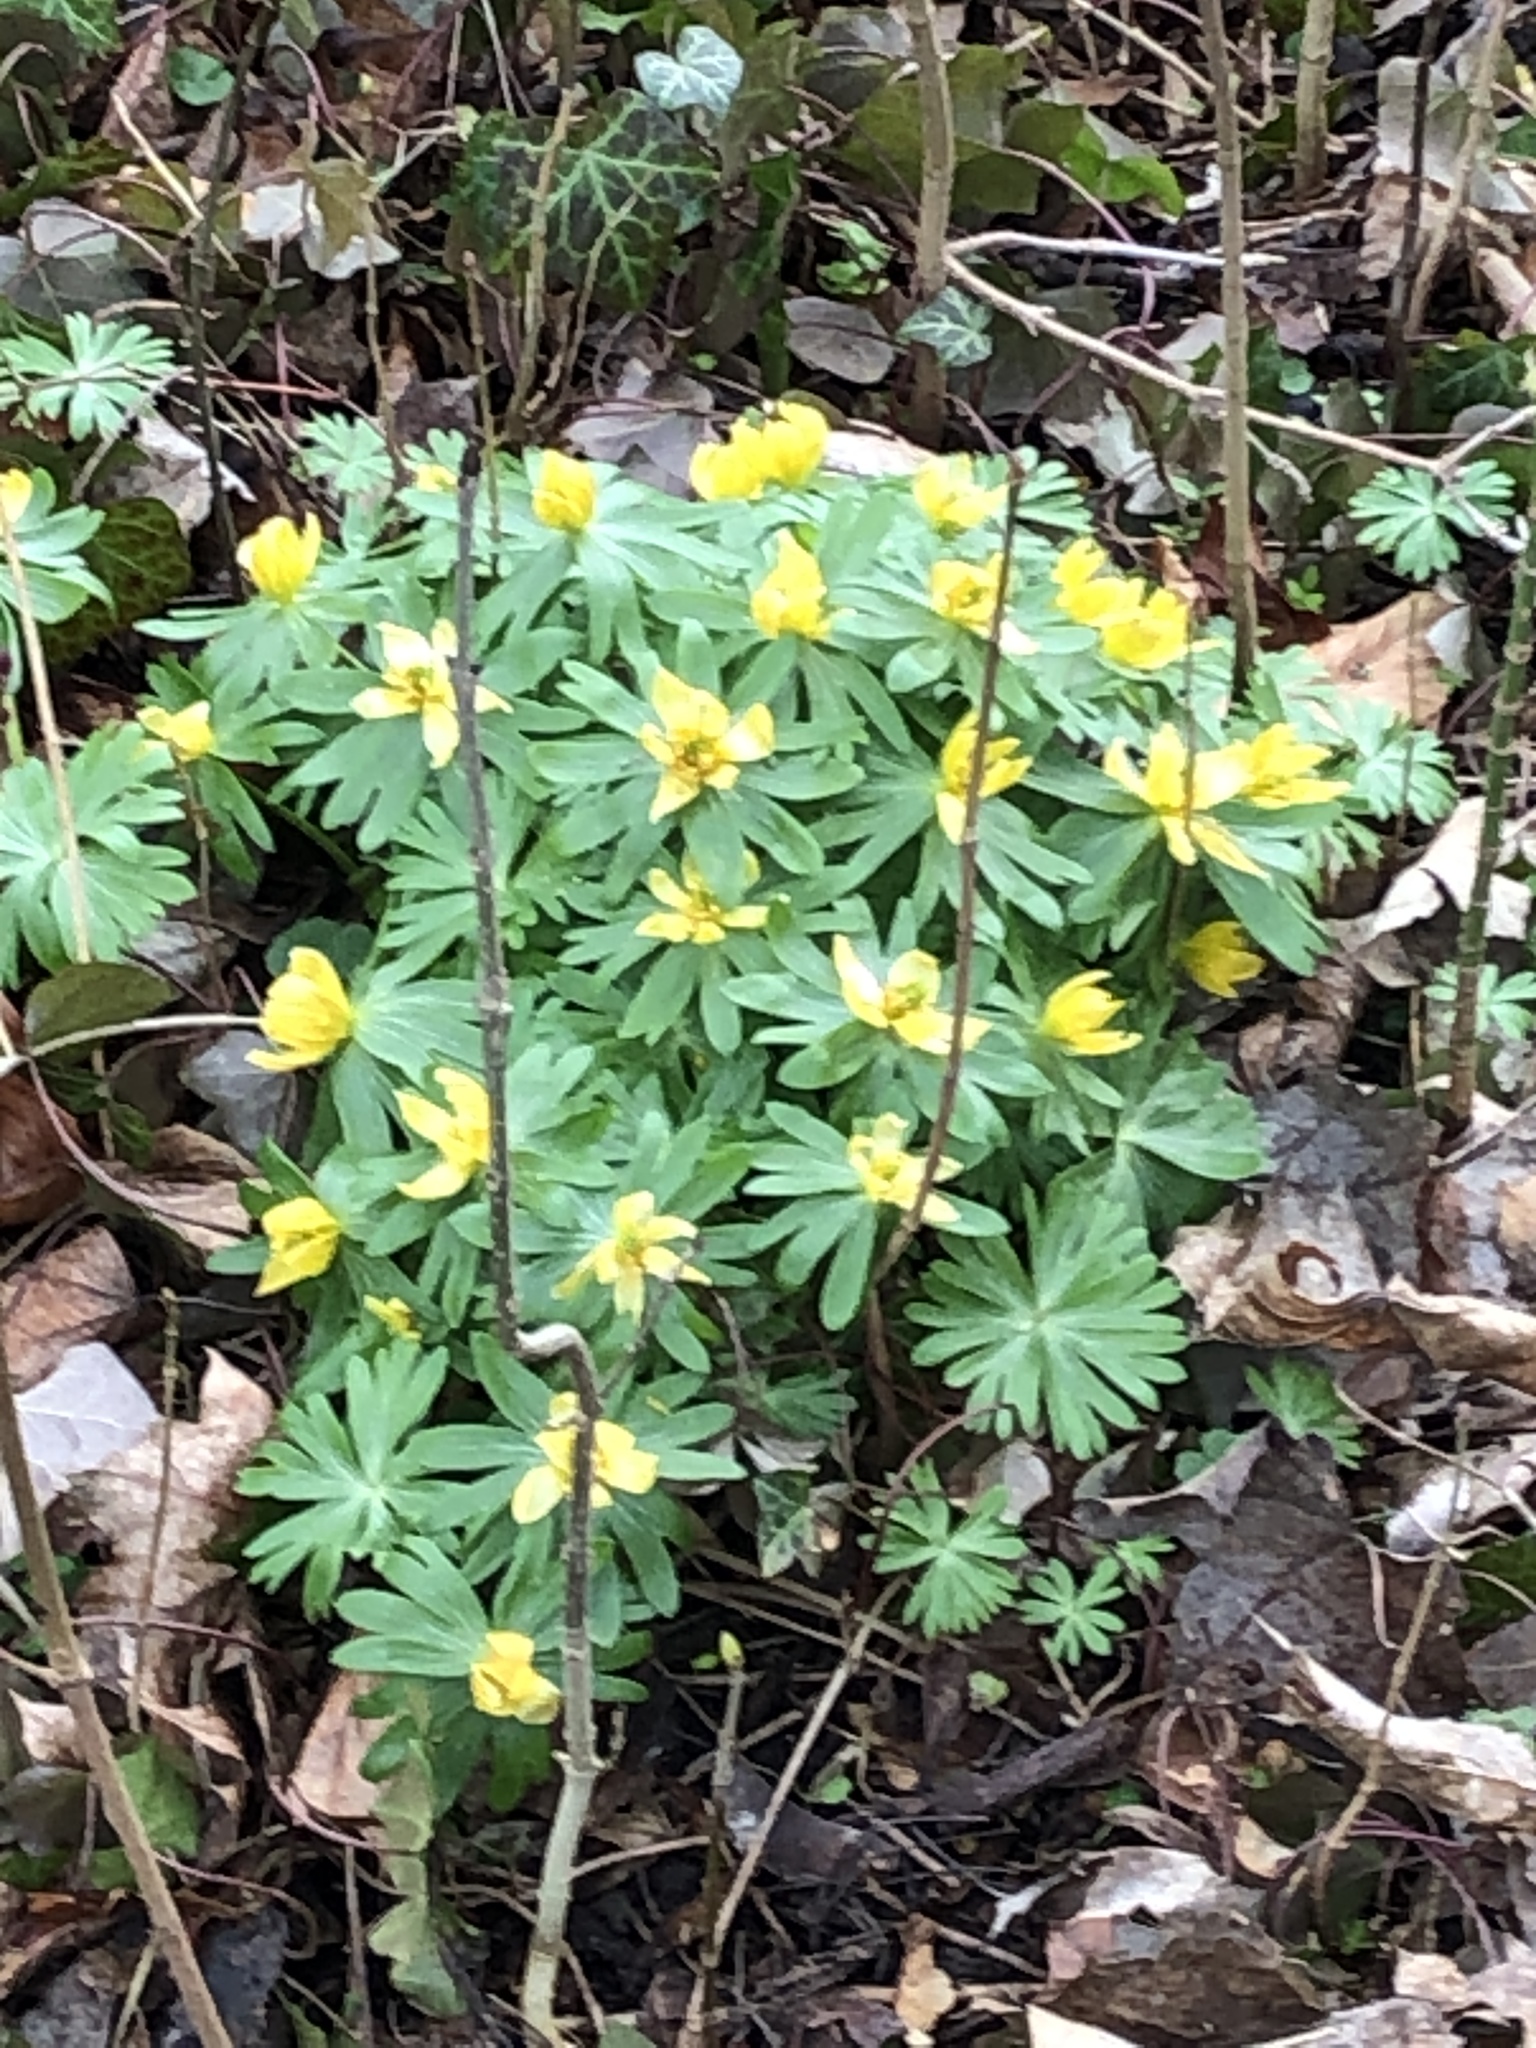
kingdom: Plantae
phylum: Tracheophyta
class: Magnoliopsida
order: Ranunculales
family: Ranunculaceae
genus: Eranthis
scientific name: Eranthis hyemalis
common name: Winter aconite
